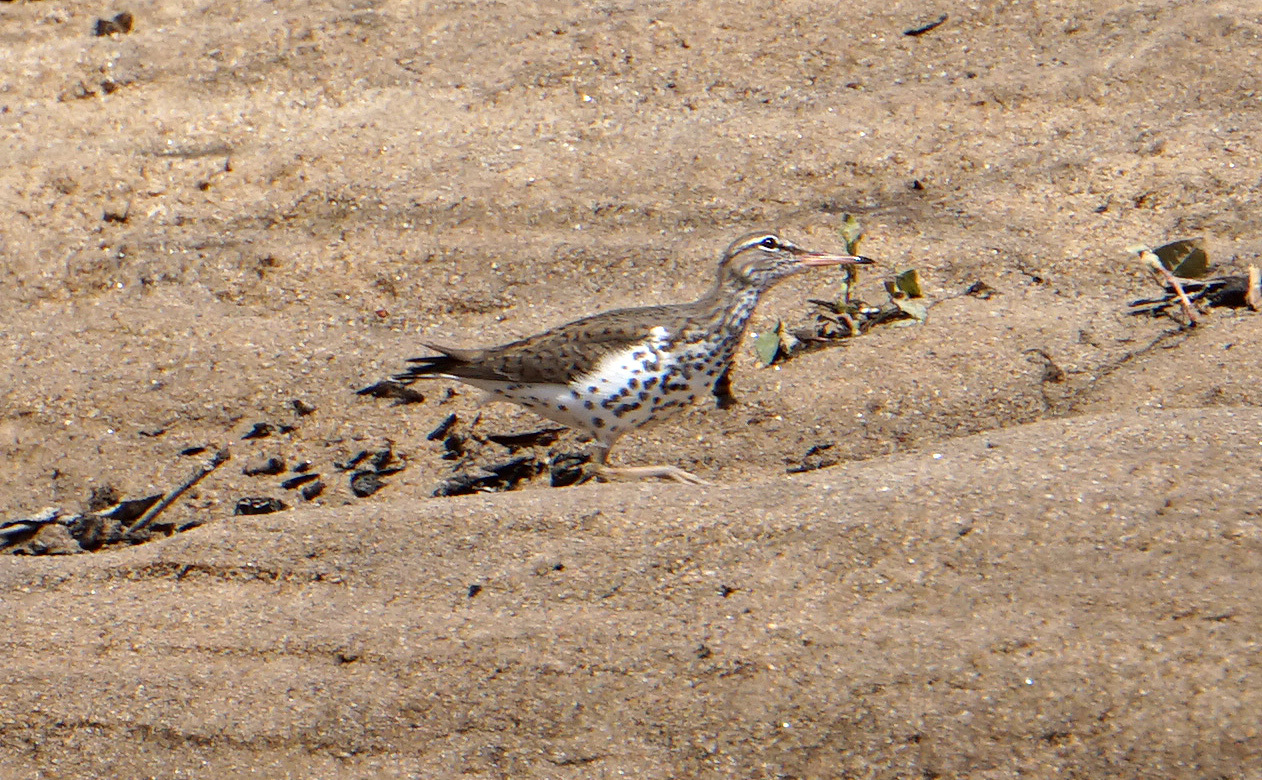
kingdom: Animalia
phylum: Chordata
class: Aves
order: Charadriiformes
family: Scolopacidae
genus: Actitis
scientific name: Actitis macularius
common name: Spotted sandpiper
